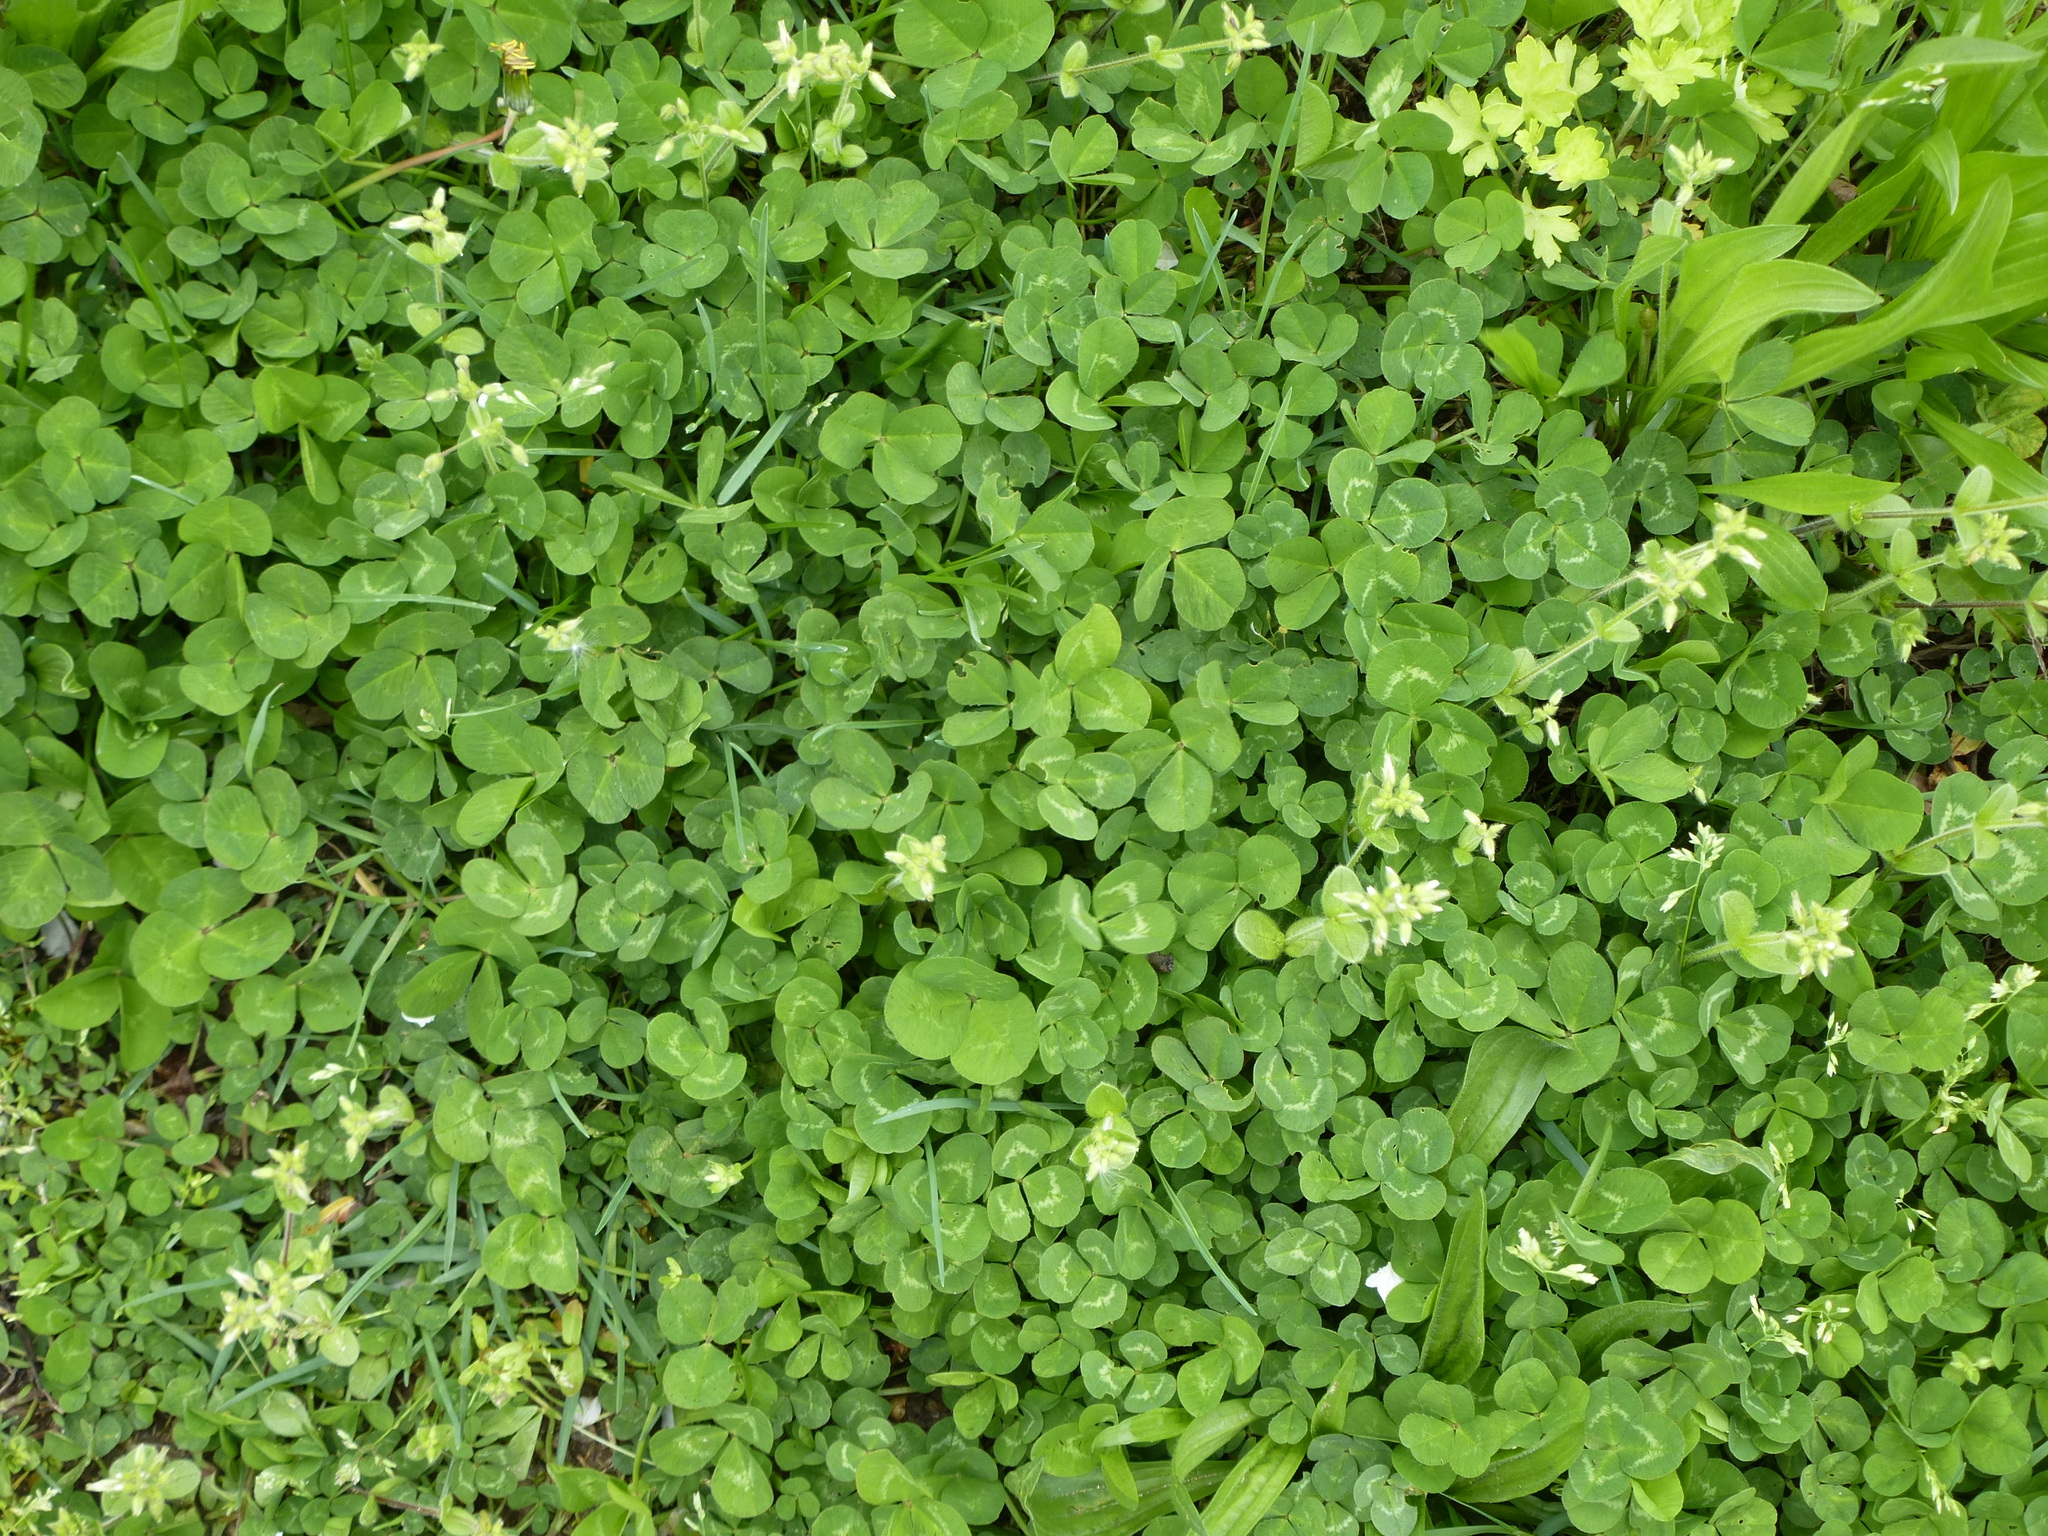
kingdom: Plantae
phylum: Tracheophyta
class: Magnoliopsida
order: Fabales
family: Fabaceae
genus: Trifolium
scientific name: Trifolium repens
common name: White clover
